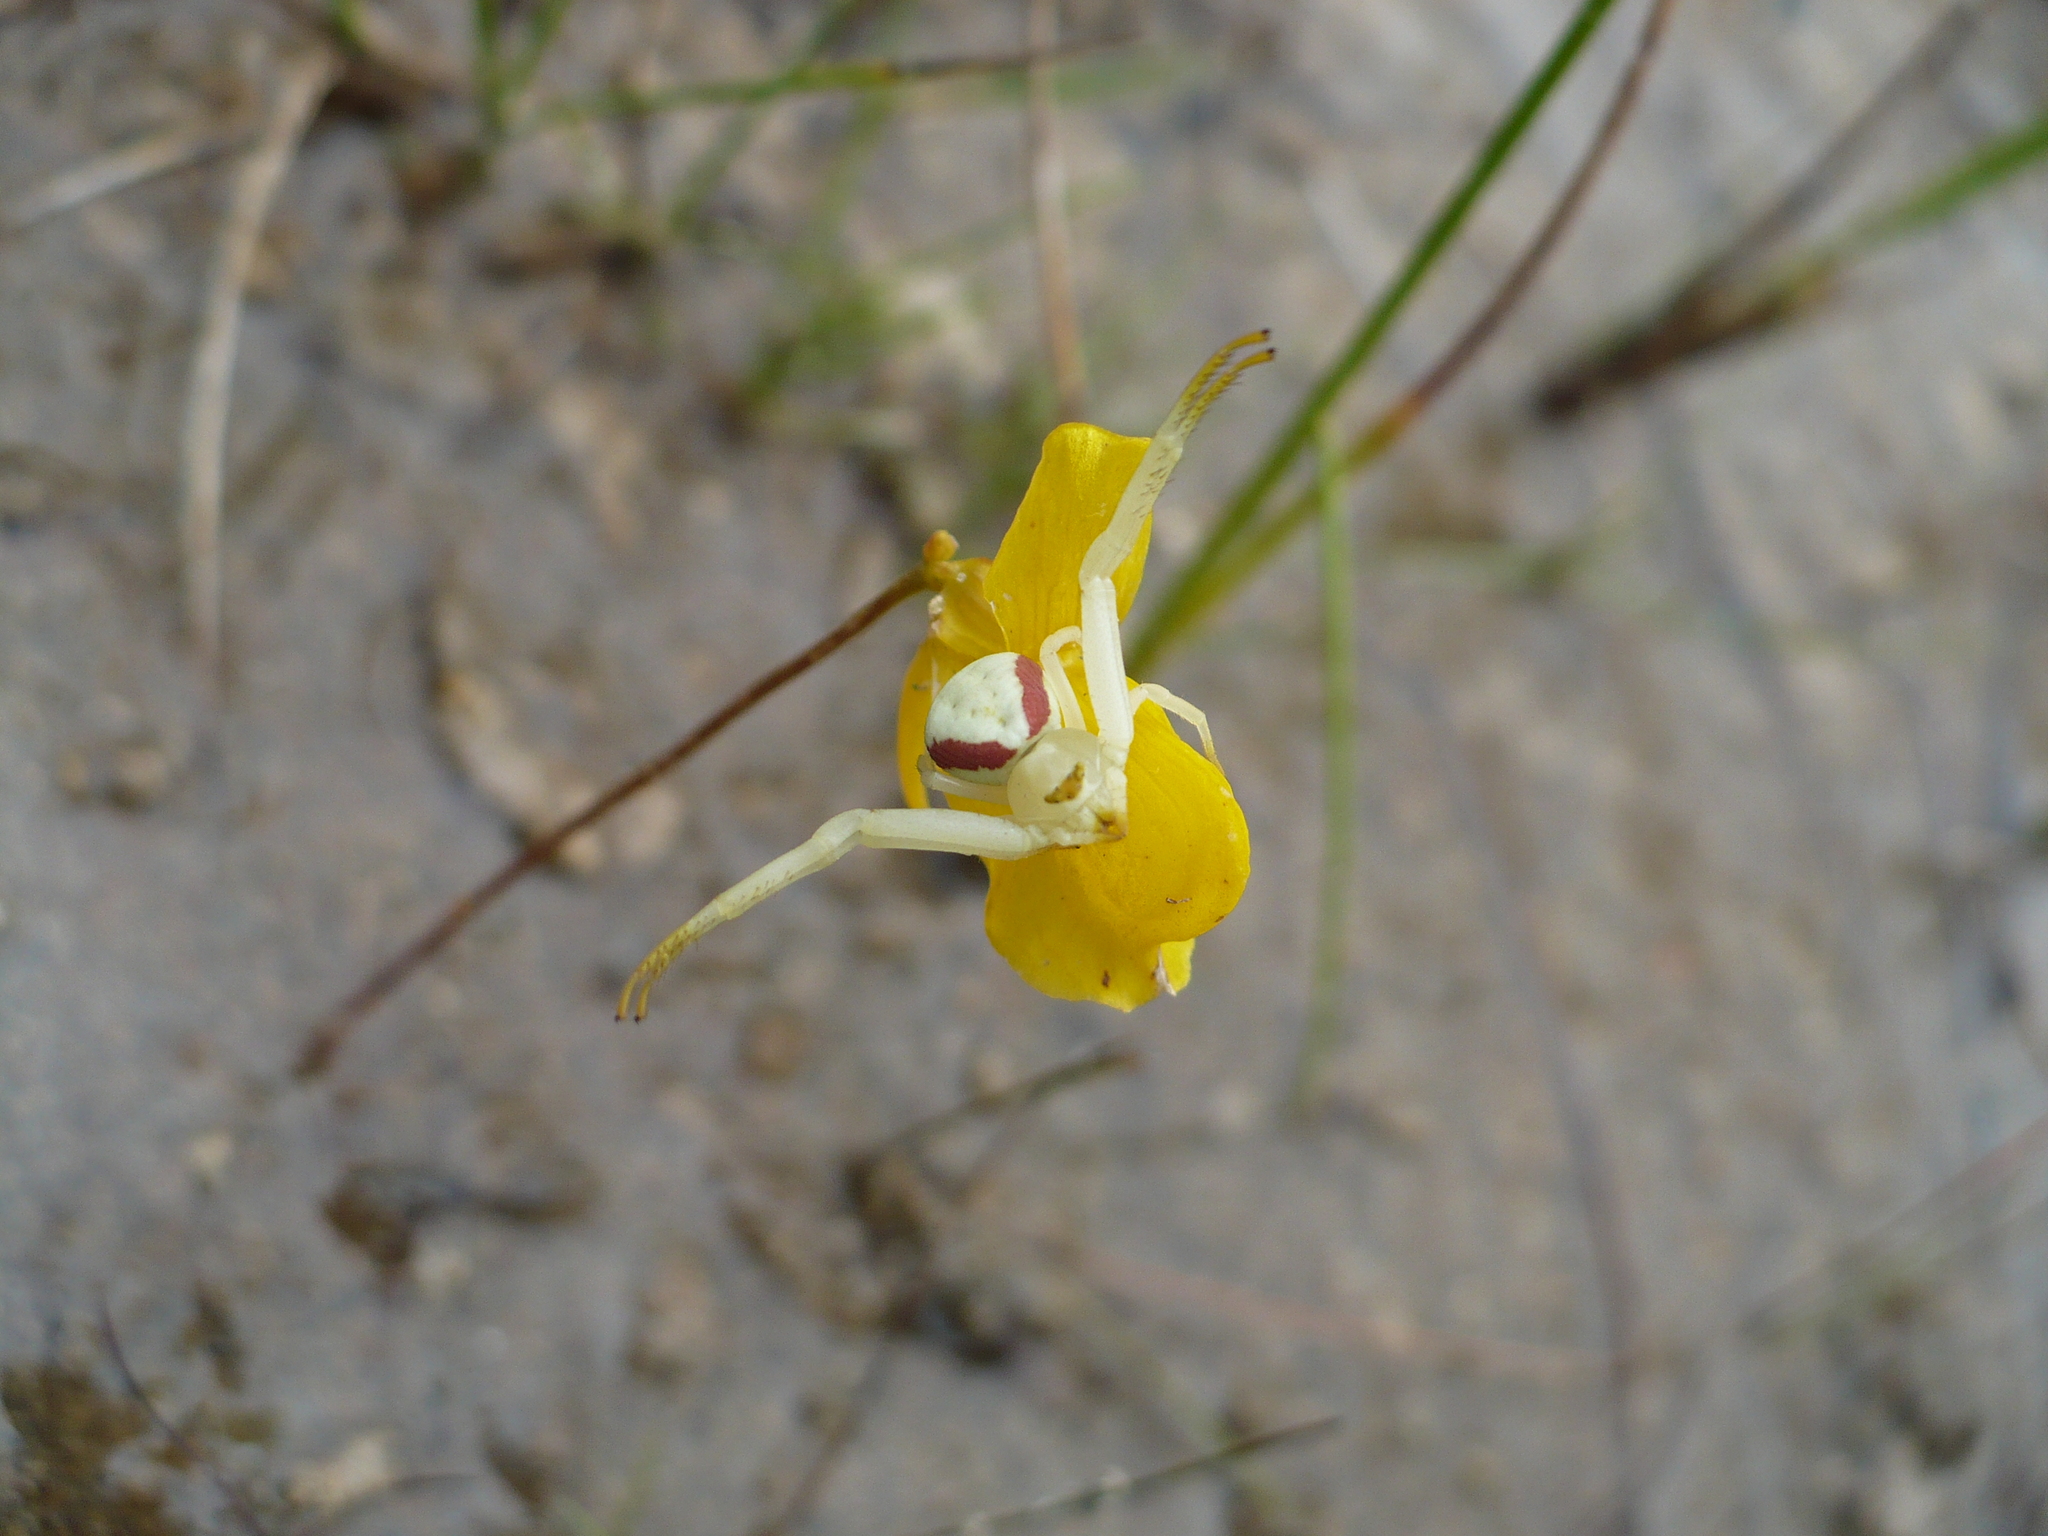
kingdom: Animalia
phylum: Arthropoda
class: Arachnida
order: Araneae
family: Thomisidae
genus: Misumena
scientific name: Misumena vatia
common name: Goldenrod crab spider
